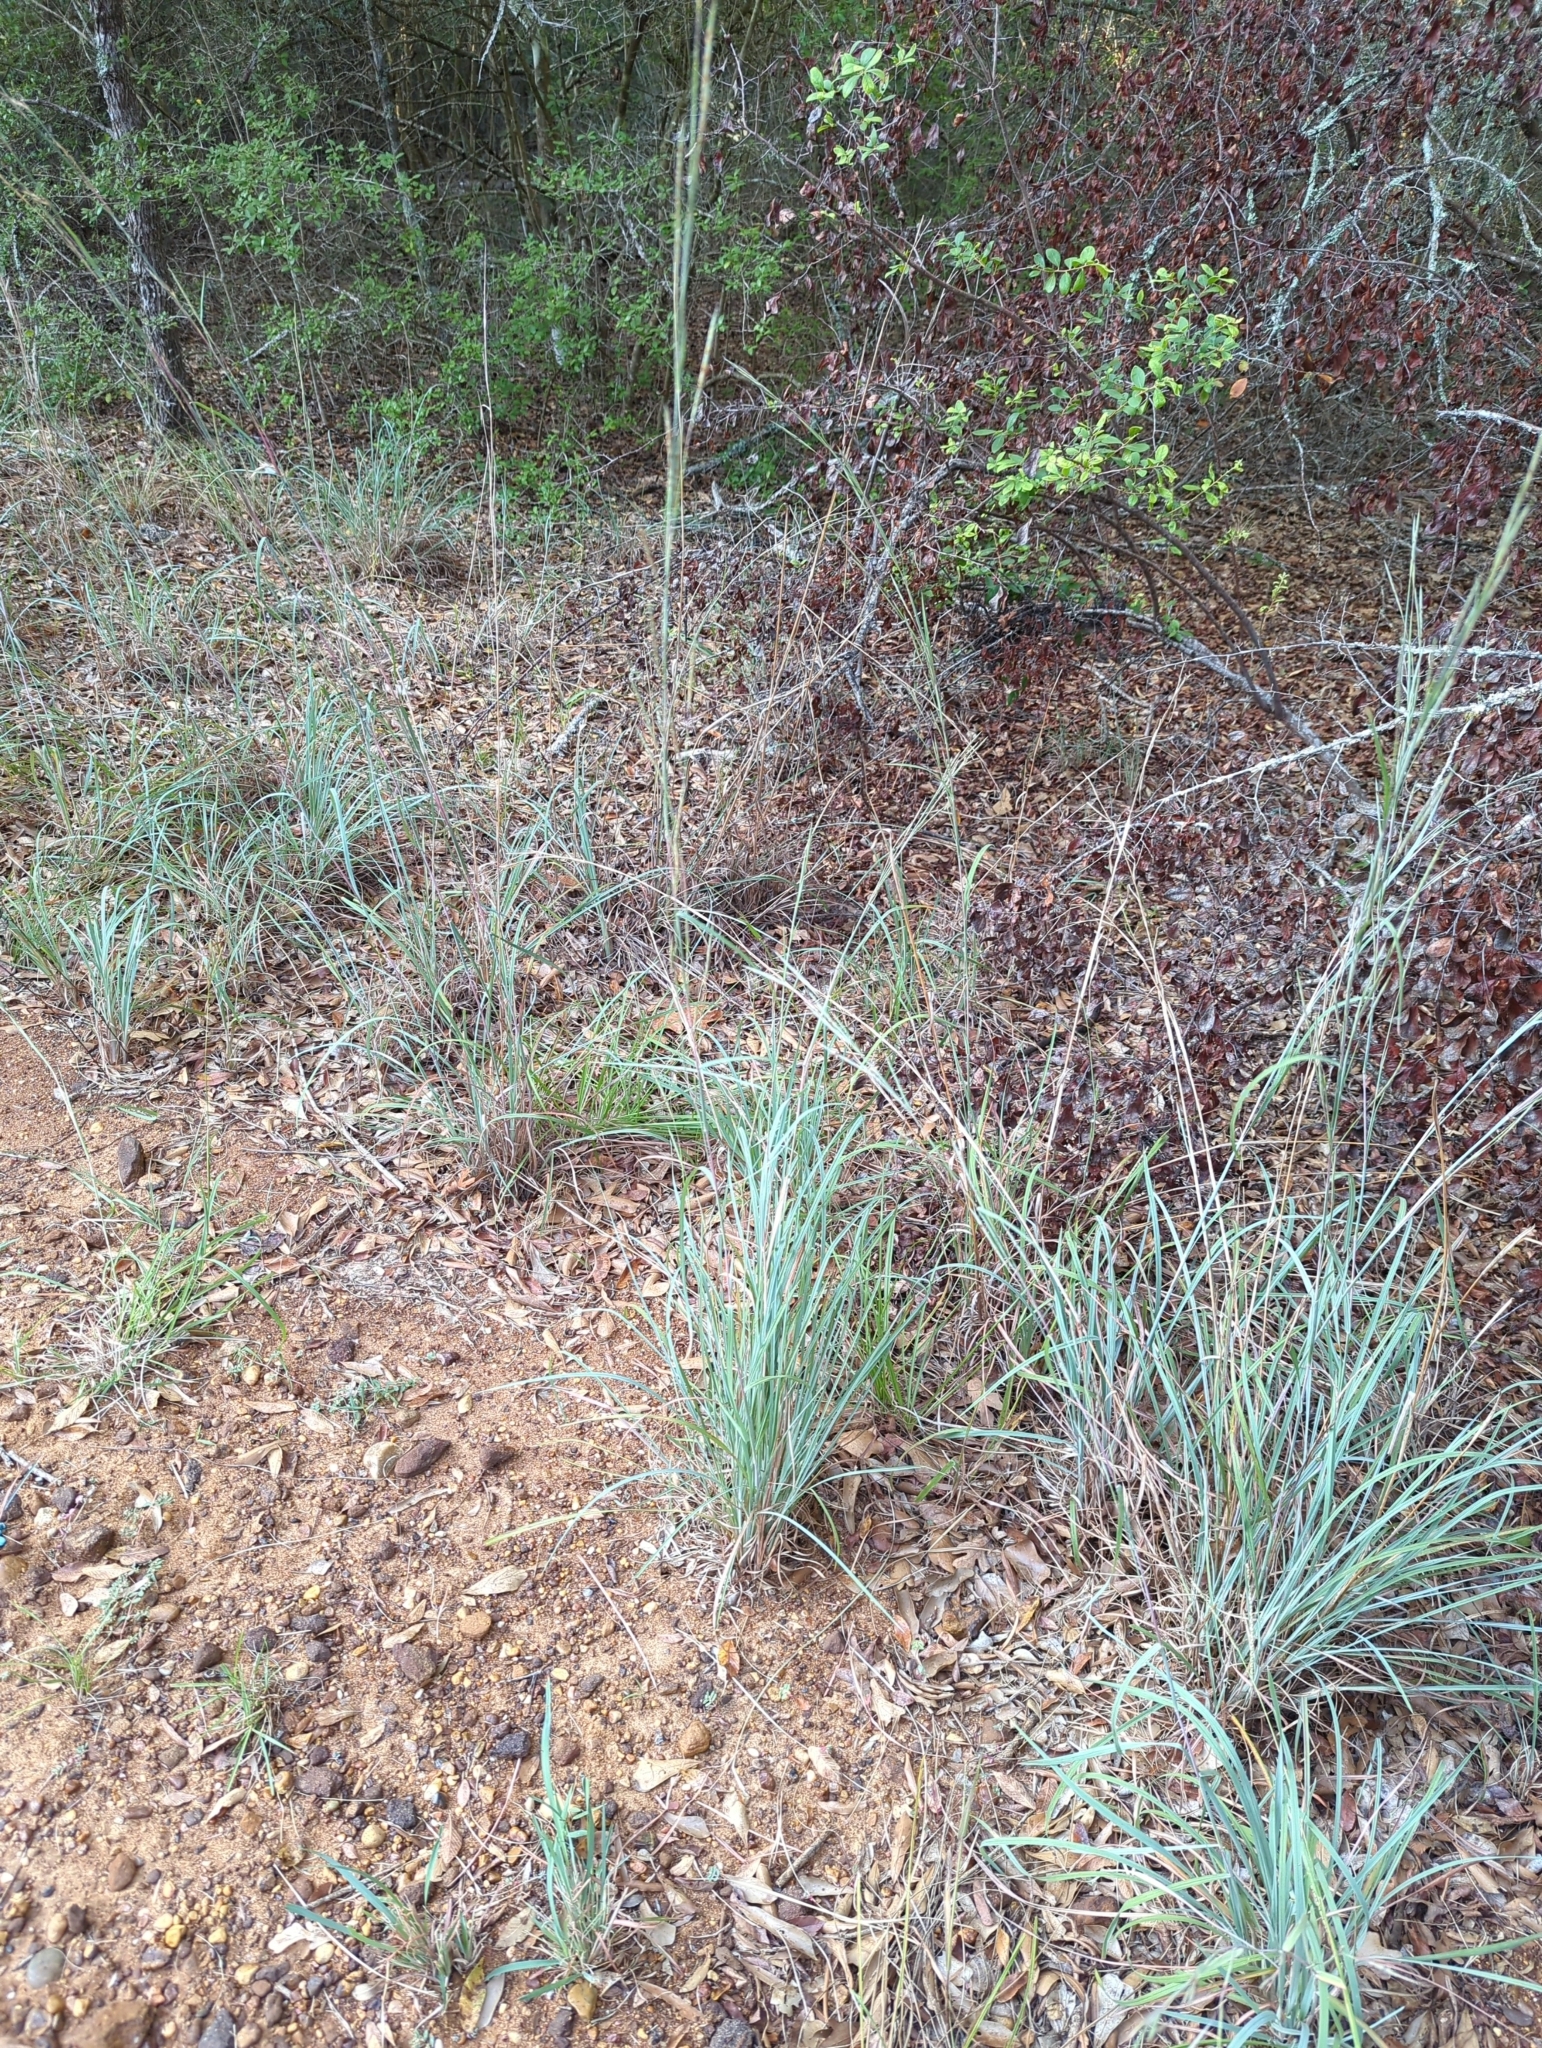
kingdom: Plantae
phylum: Tracheophyta
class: Liliopsida
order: Poales
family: Poaceae
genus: Schizachyrium
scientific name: Schizachyrium scoparium
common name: Little bluestem
